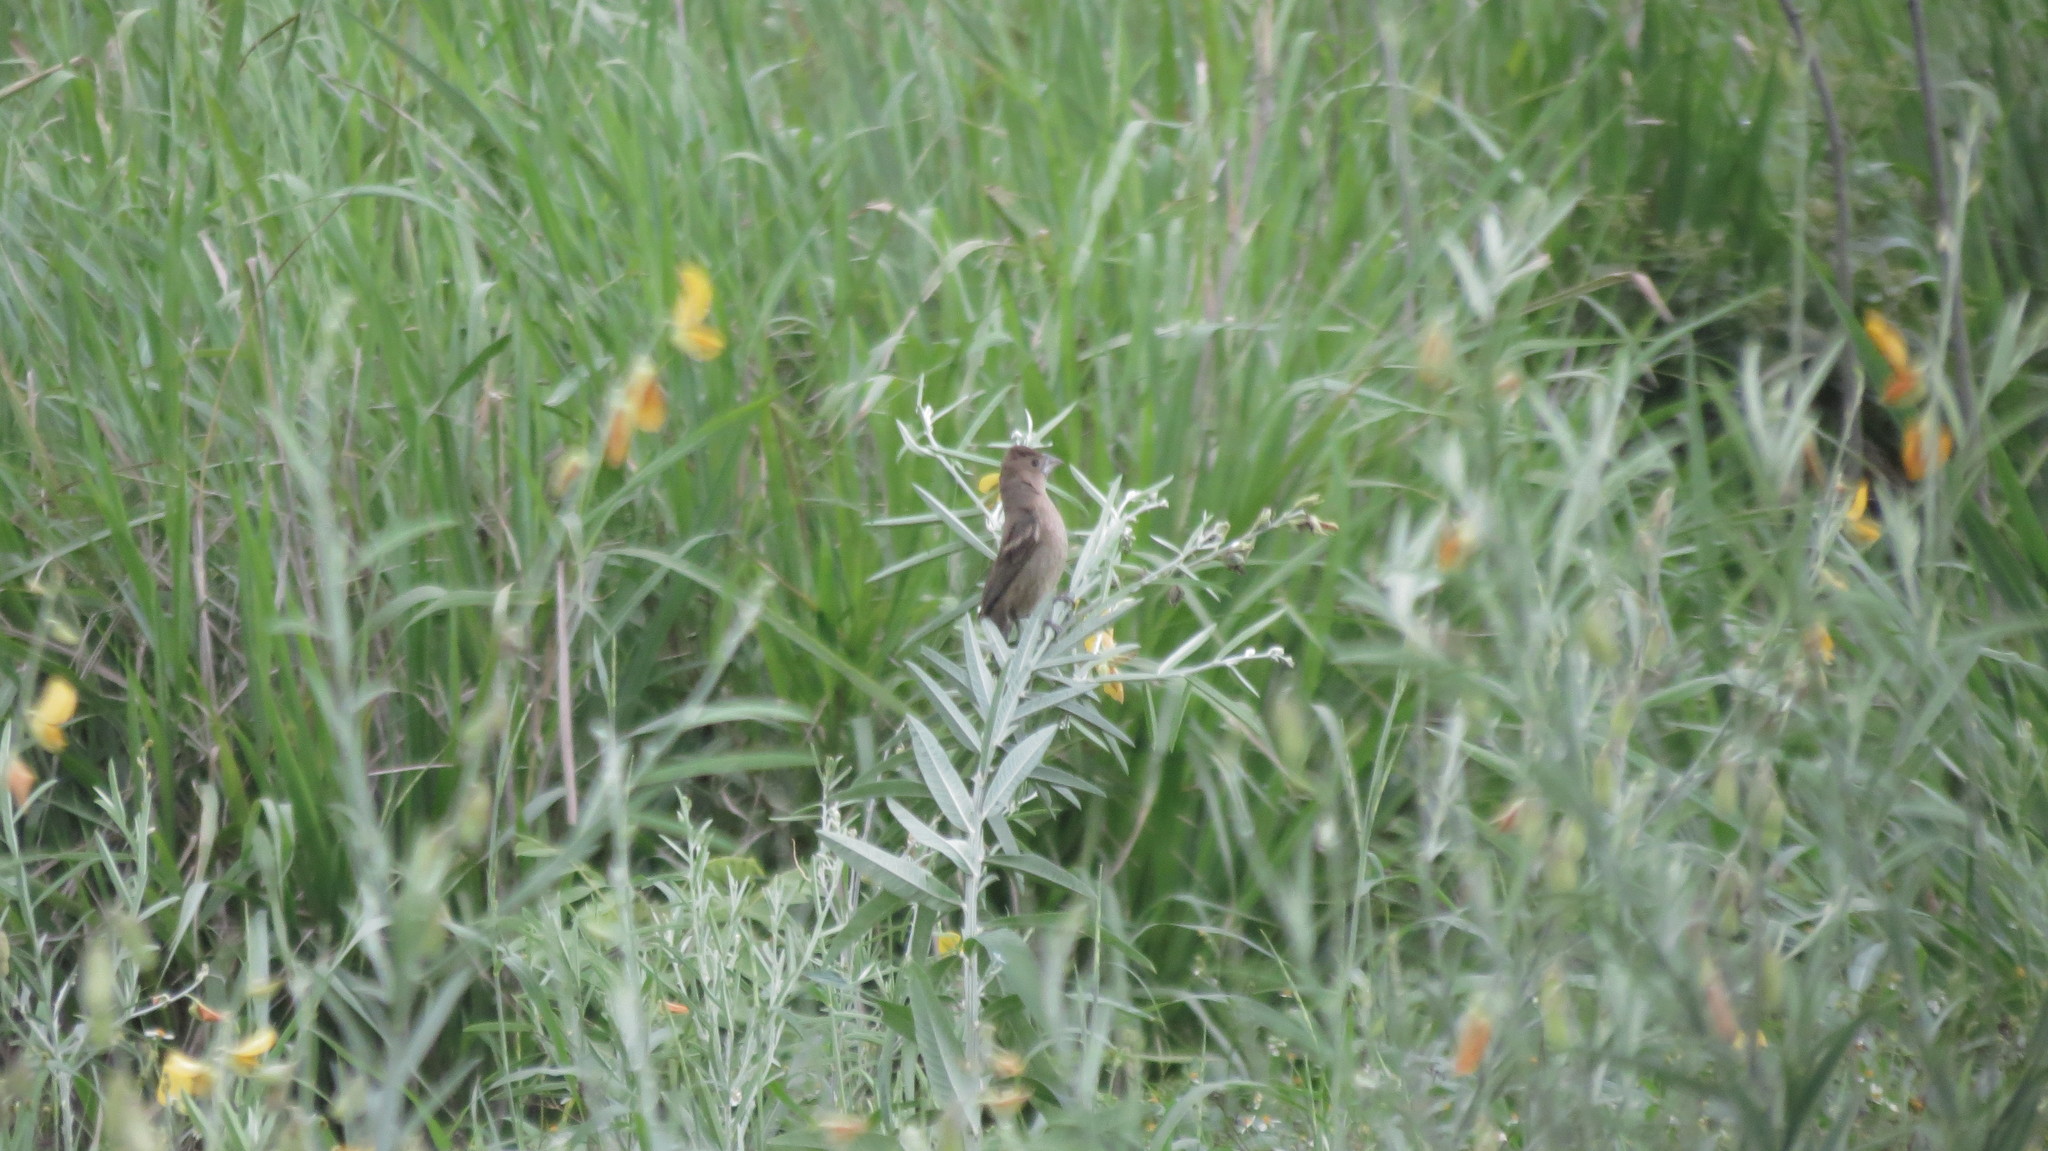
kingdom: Animalia
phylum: Chordata
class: Aves
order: Passeriformes
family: Cardinalidae
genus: Passerina
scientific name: Passerina caerulea
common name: Blue grosbeak
